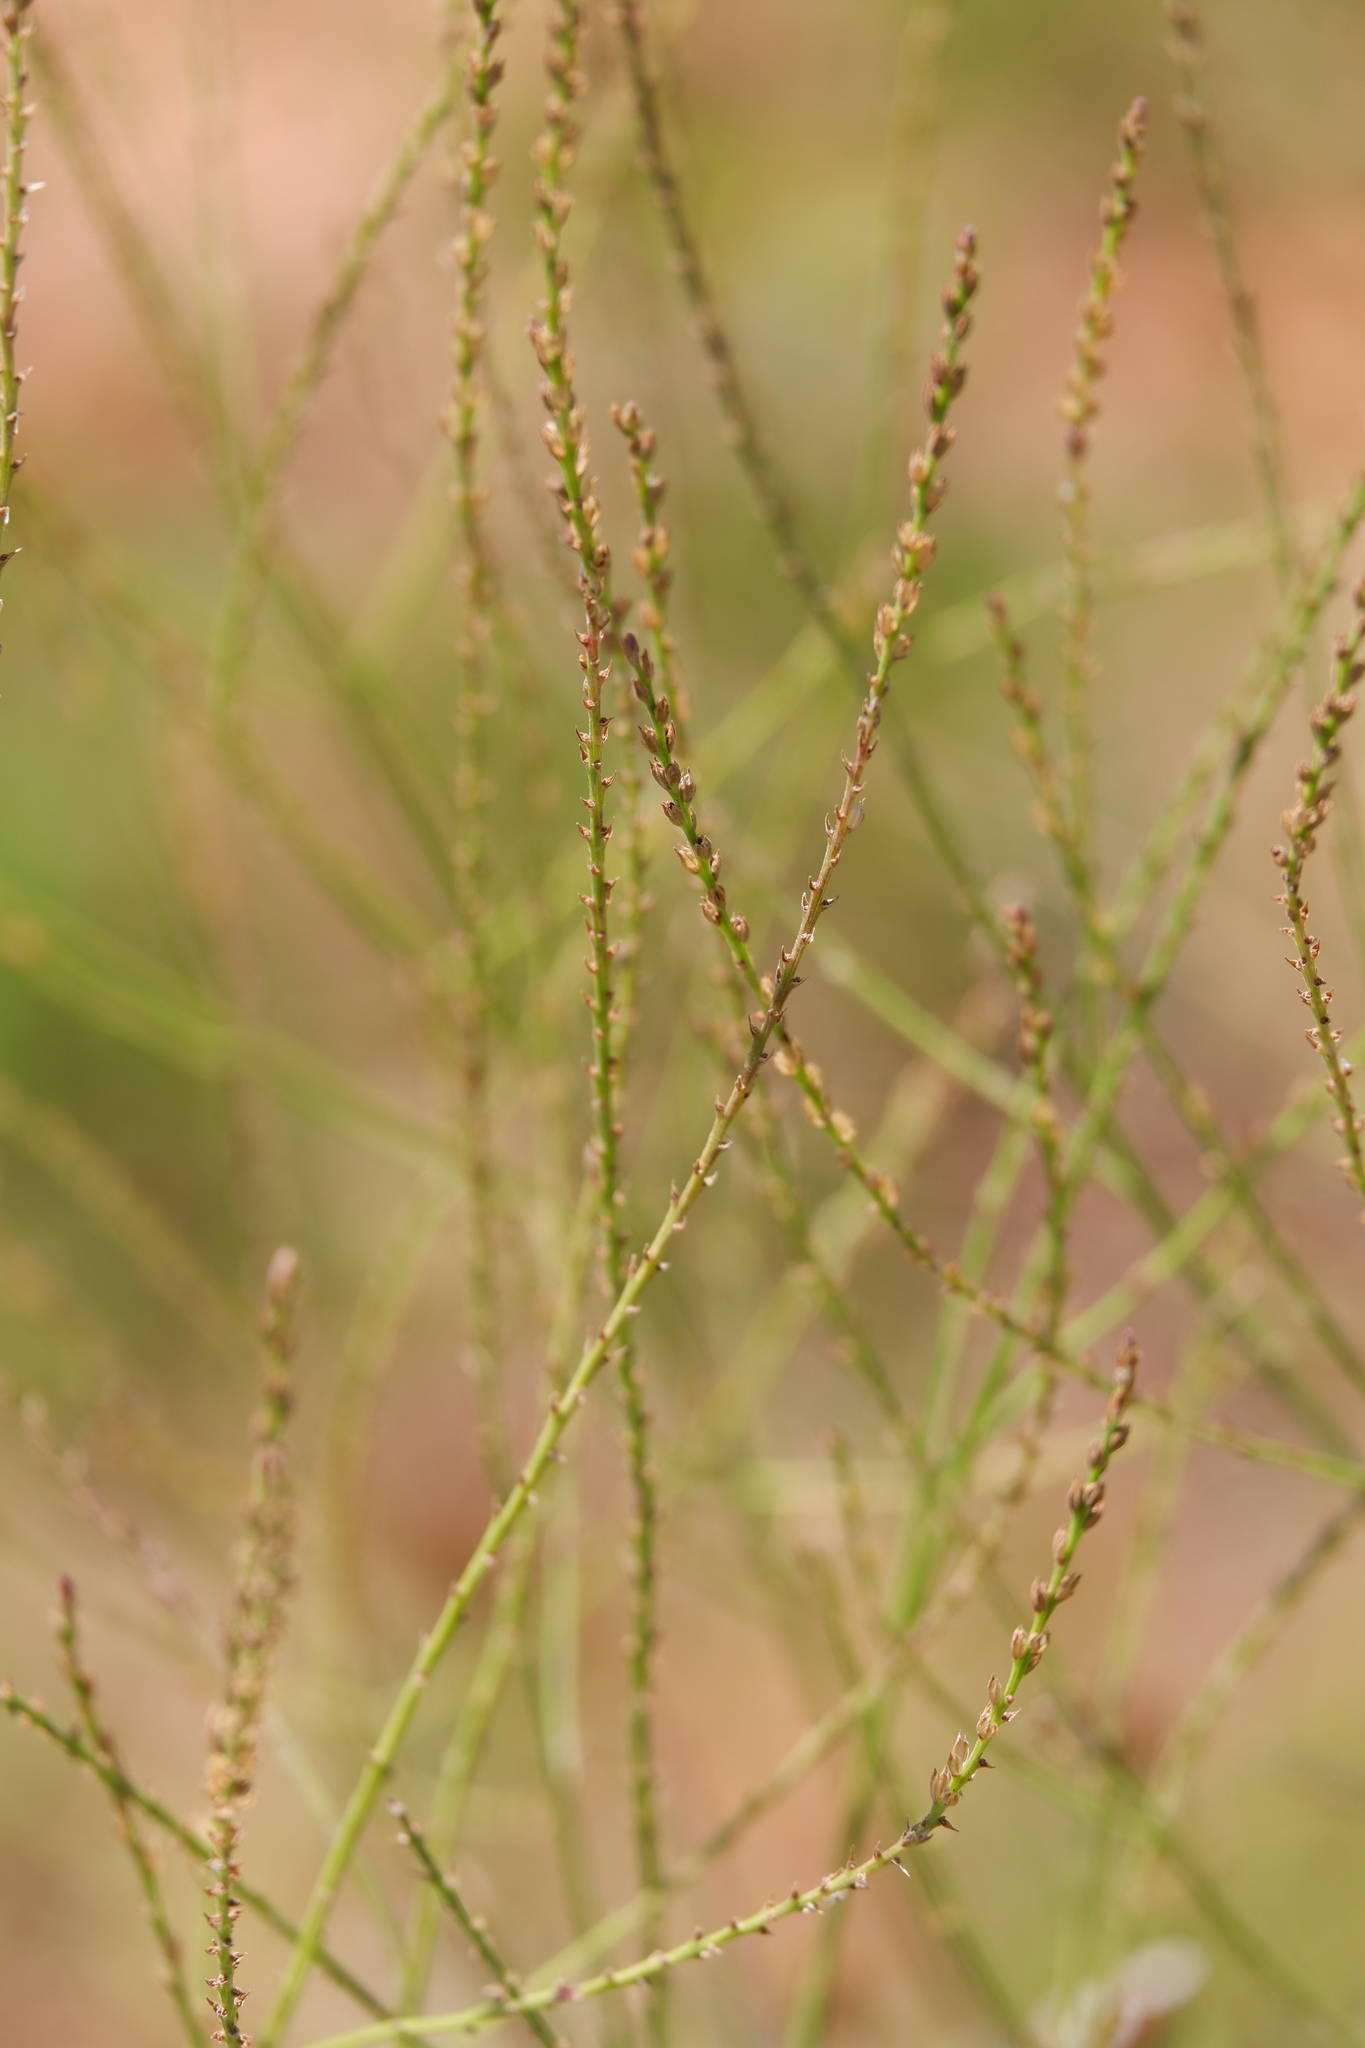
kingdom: Plantae
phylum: Tracheophyta
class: Magnoliopsida
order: Lamiales
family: Verbenaceae
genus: Verbena
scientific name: Verbena halei
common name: Texas vervain
